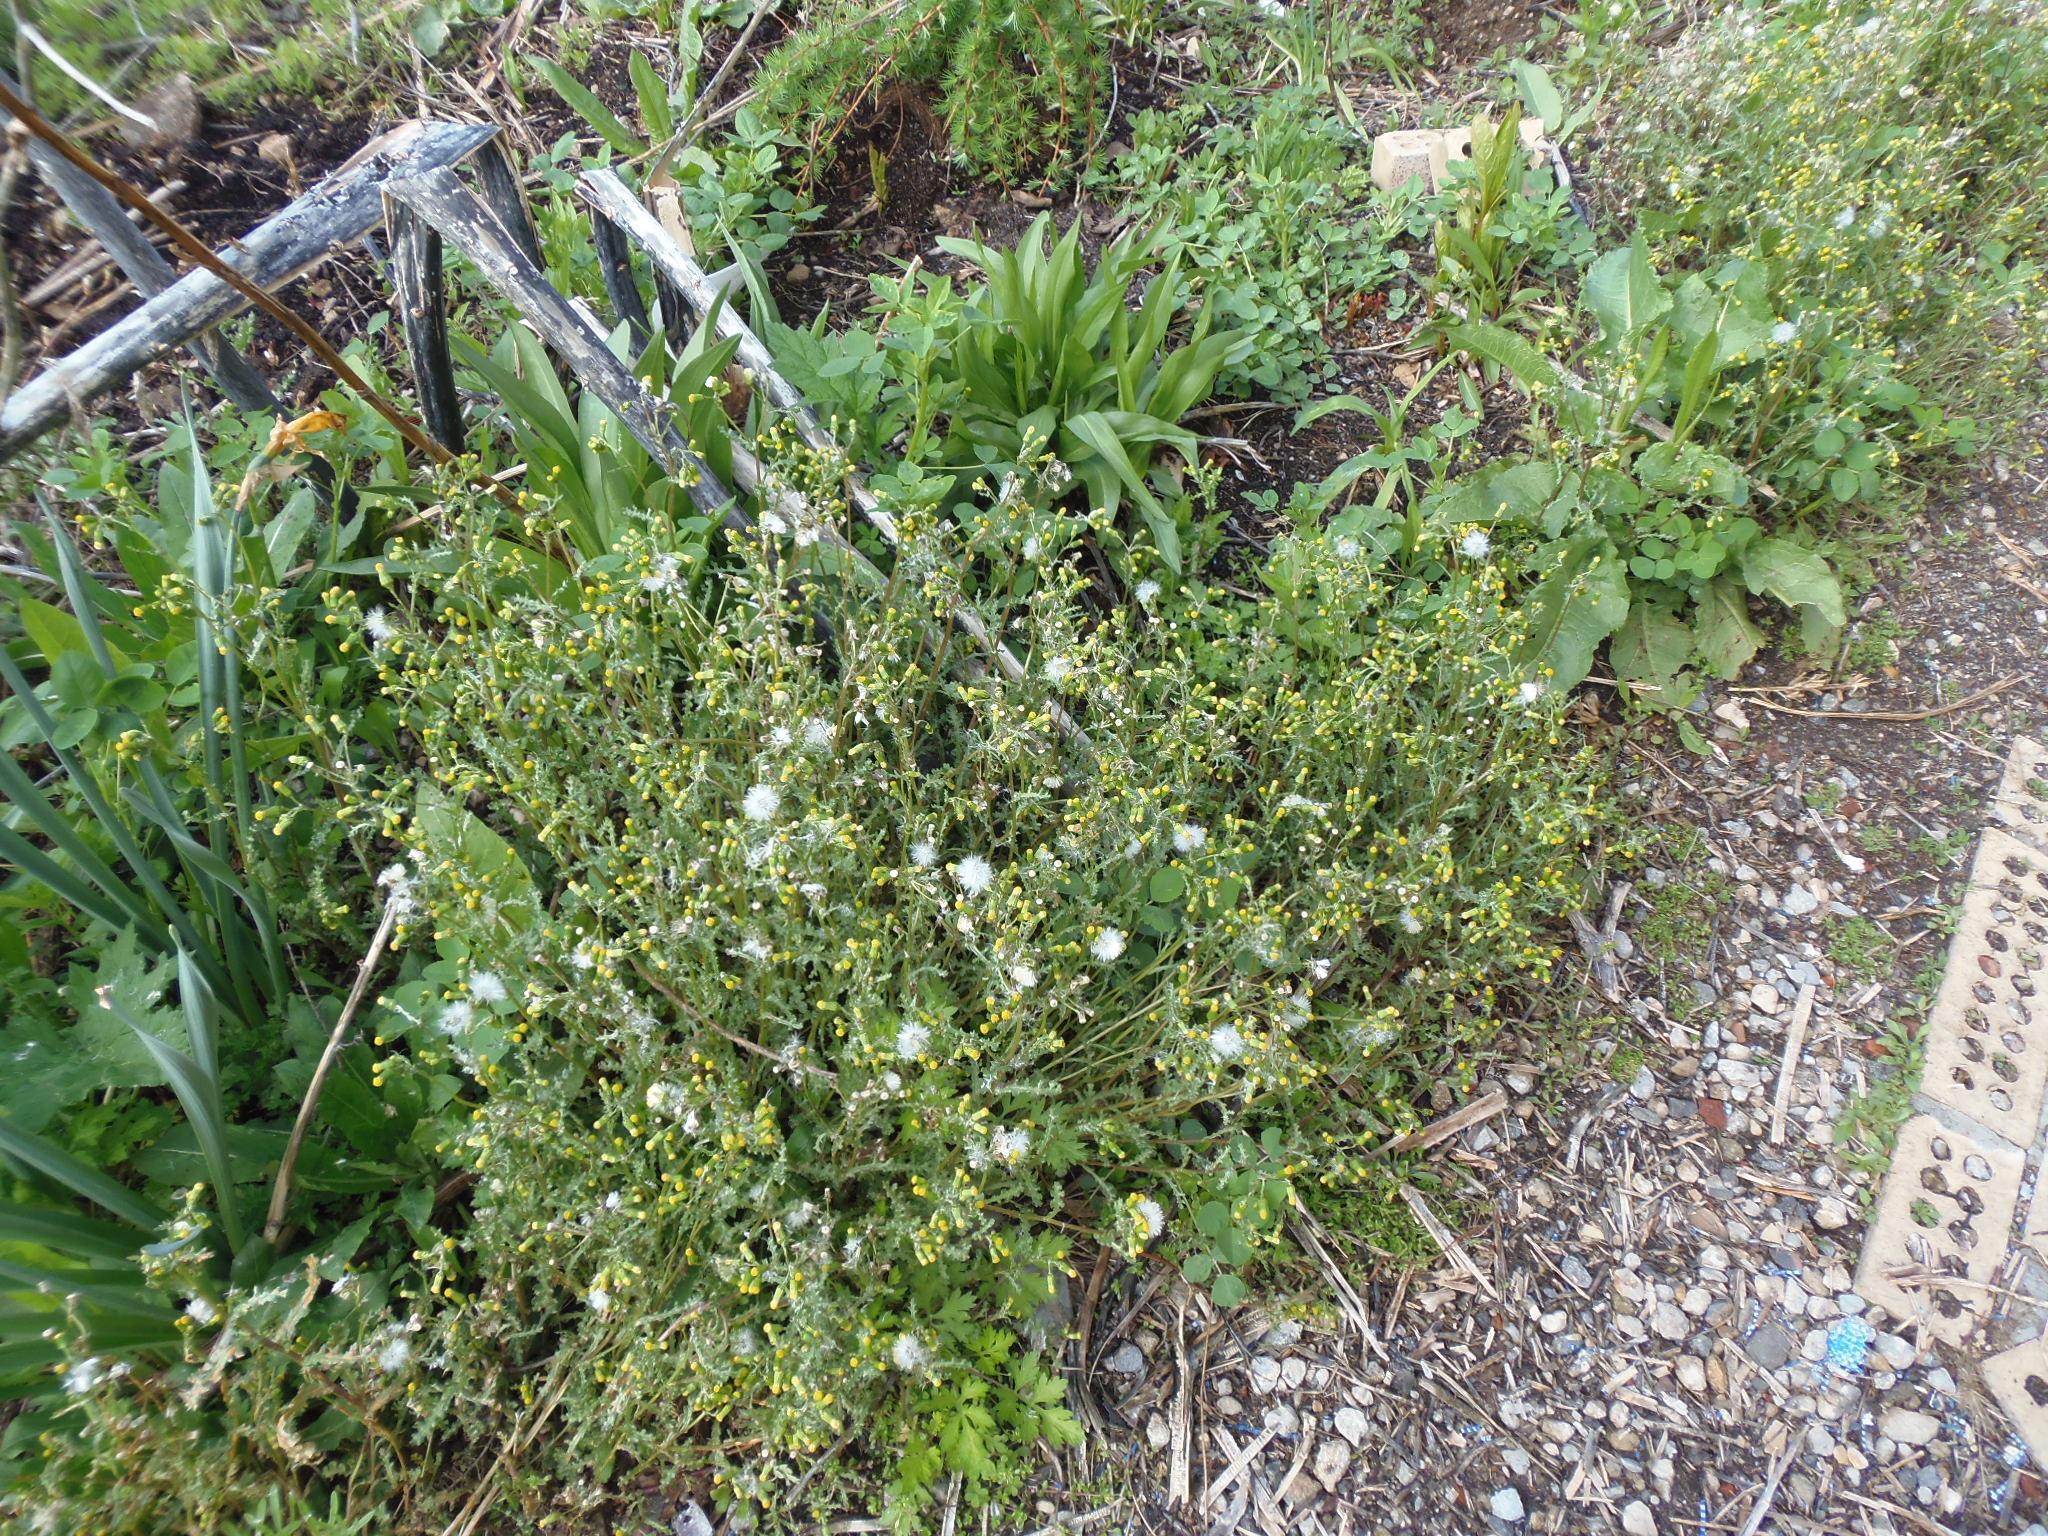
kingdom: Plantae
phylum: Tracheophyta
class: Magnoliopsida
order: Asterales
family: Asteraceae
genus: Senecio
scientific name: Senecio vulgaris
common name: Old-man-in-the-spring
